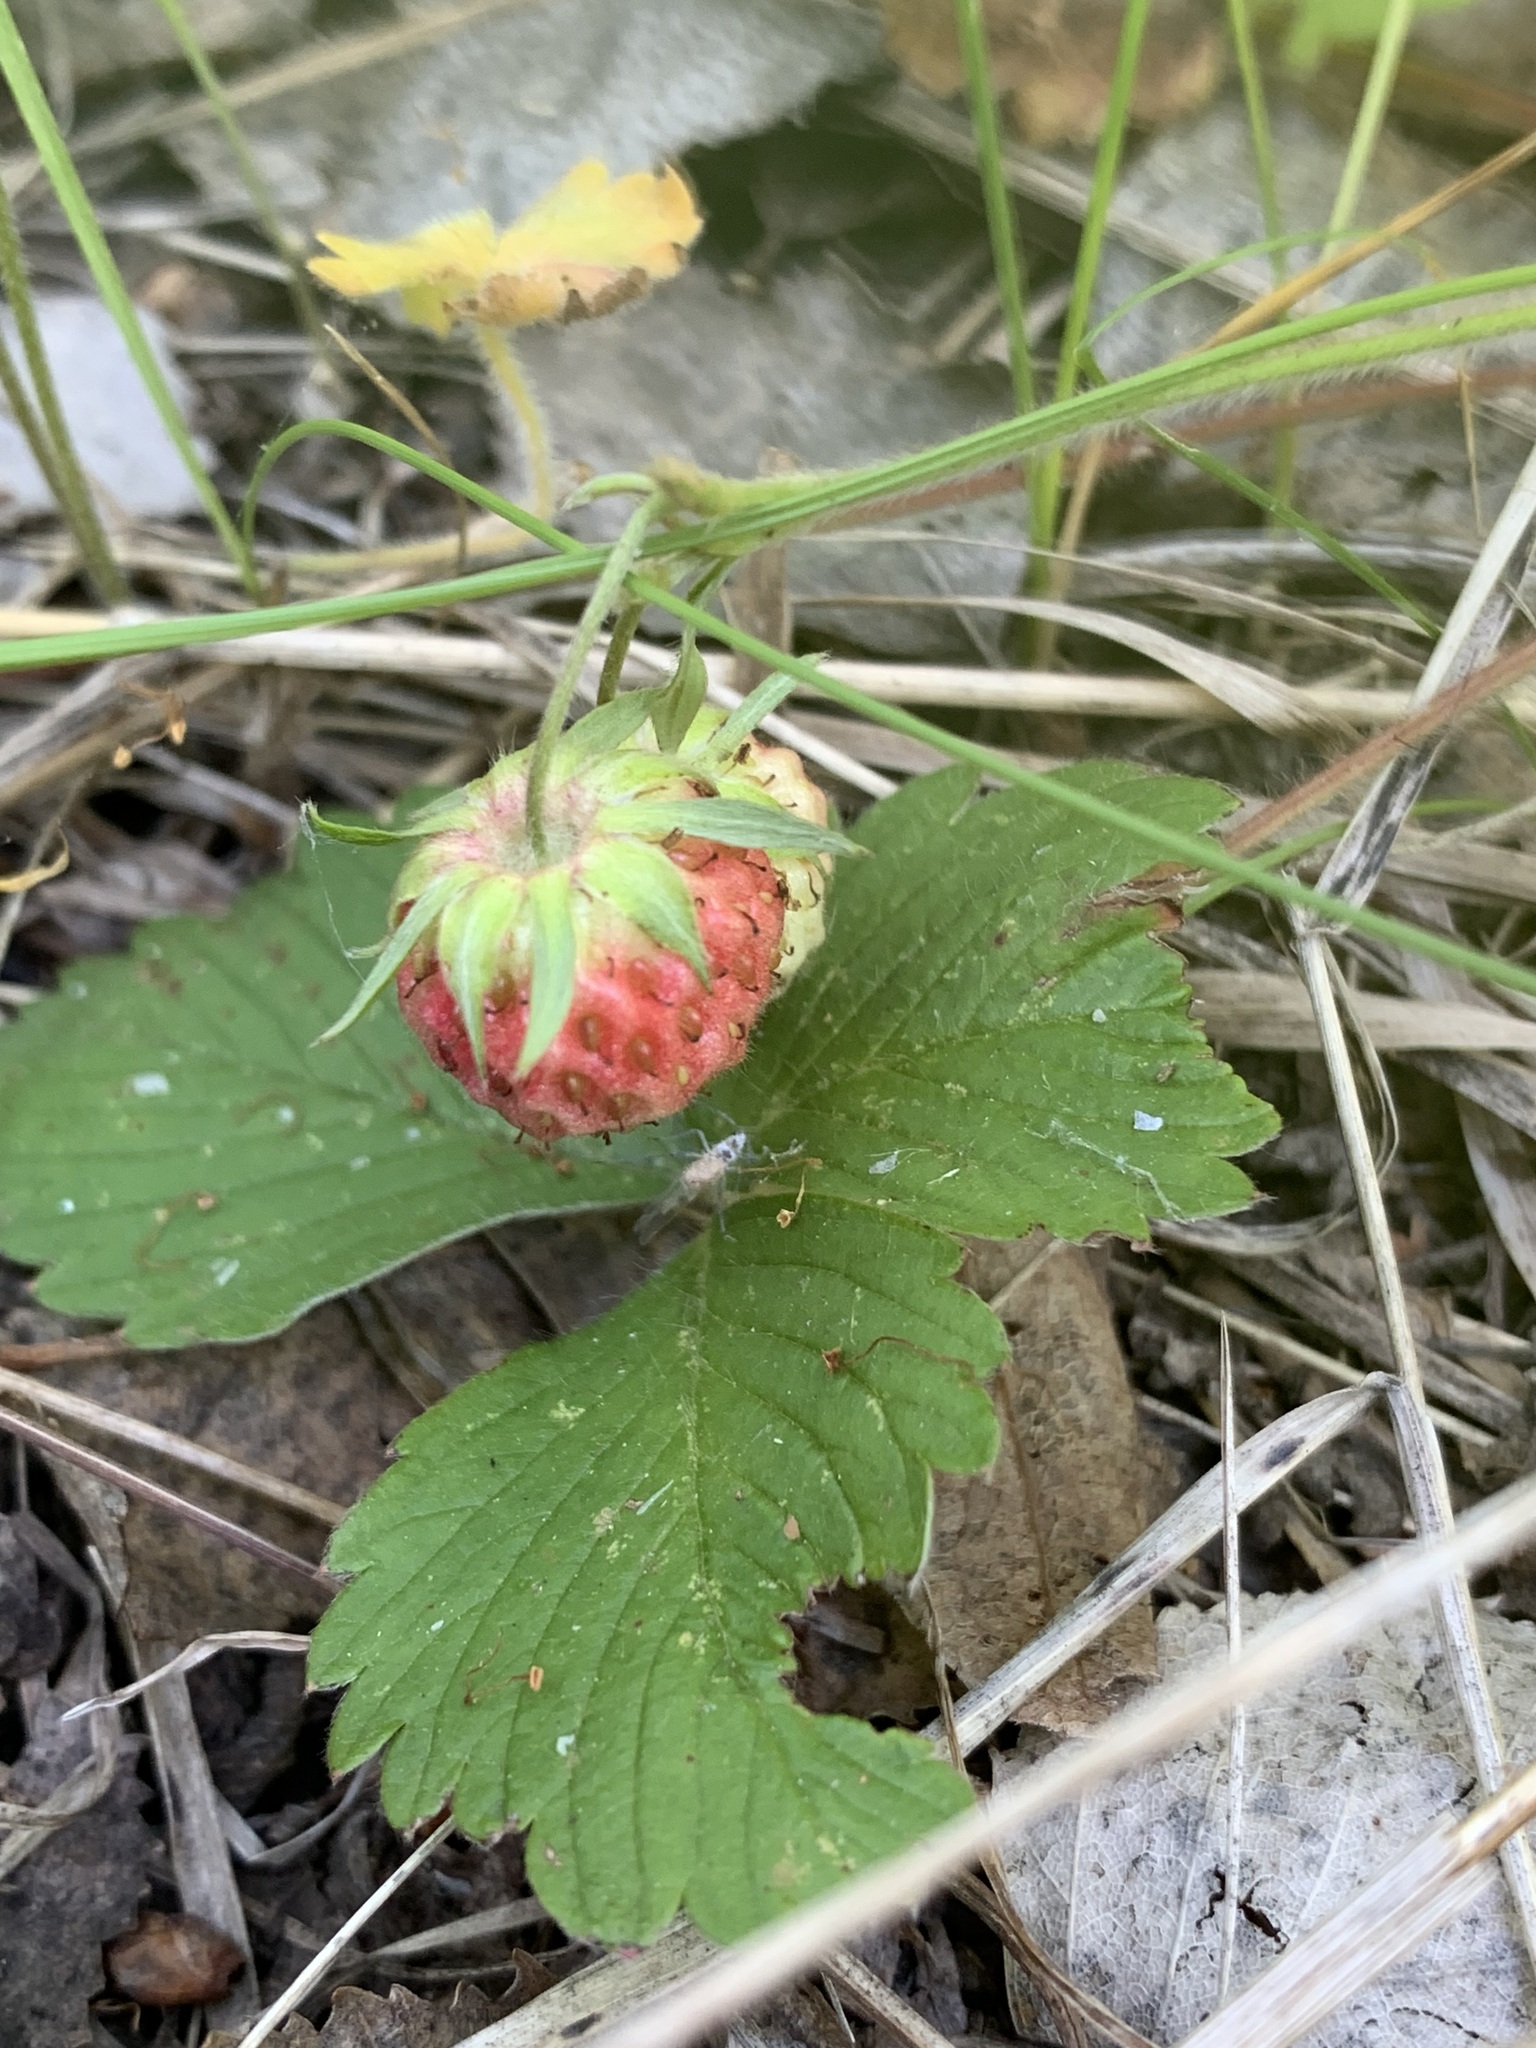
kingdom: Plantae
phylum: Tracheophyta
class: Magnoliopsida
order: Rosales
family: Rosaceae
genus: Fragaria
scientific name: Fragaria viridis
